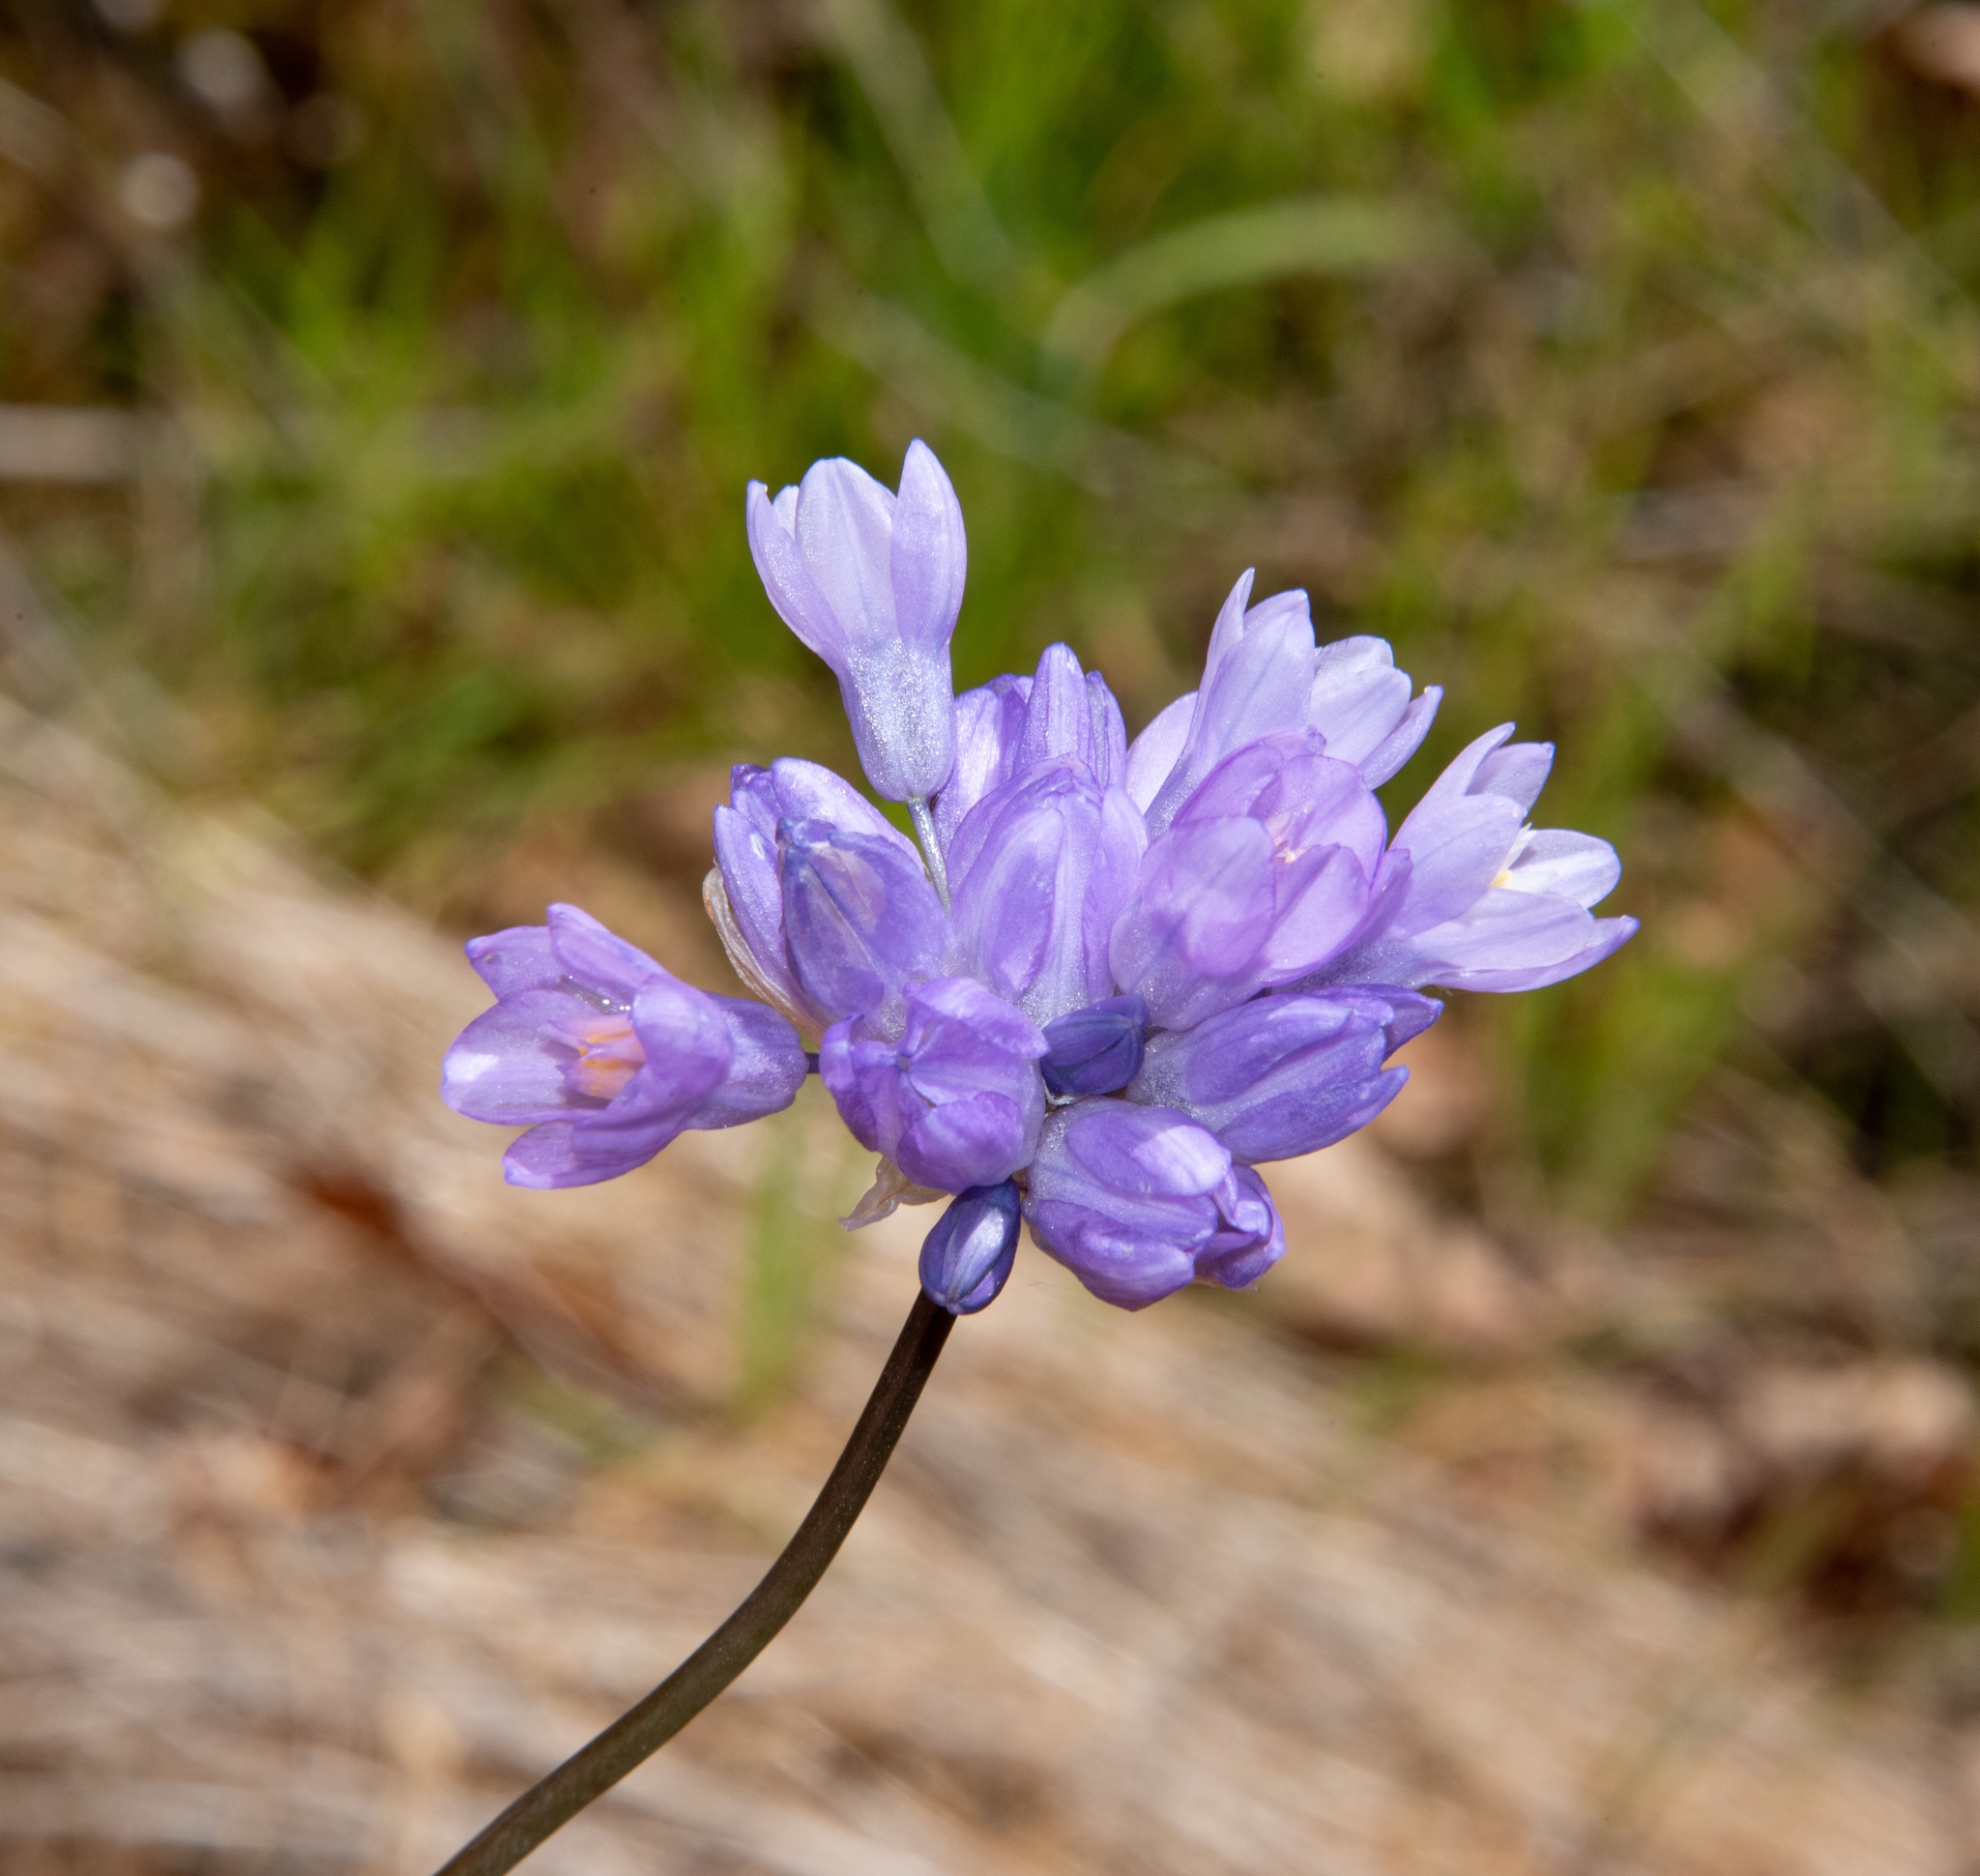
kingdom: Plantae
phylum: Tracheophyta
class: Liliopsida
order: Asparagales
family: Asparagaceae
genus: Dipterostemon
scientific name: Dipterostemon capitatus
